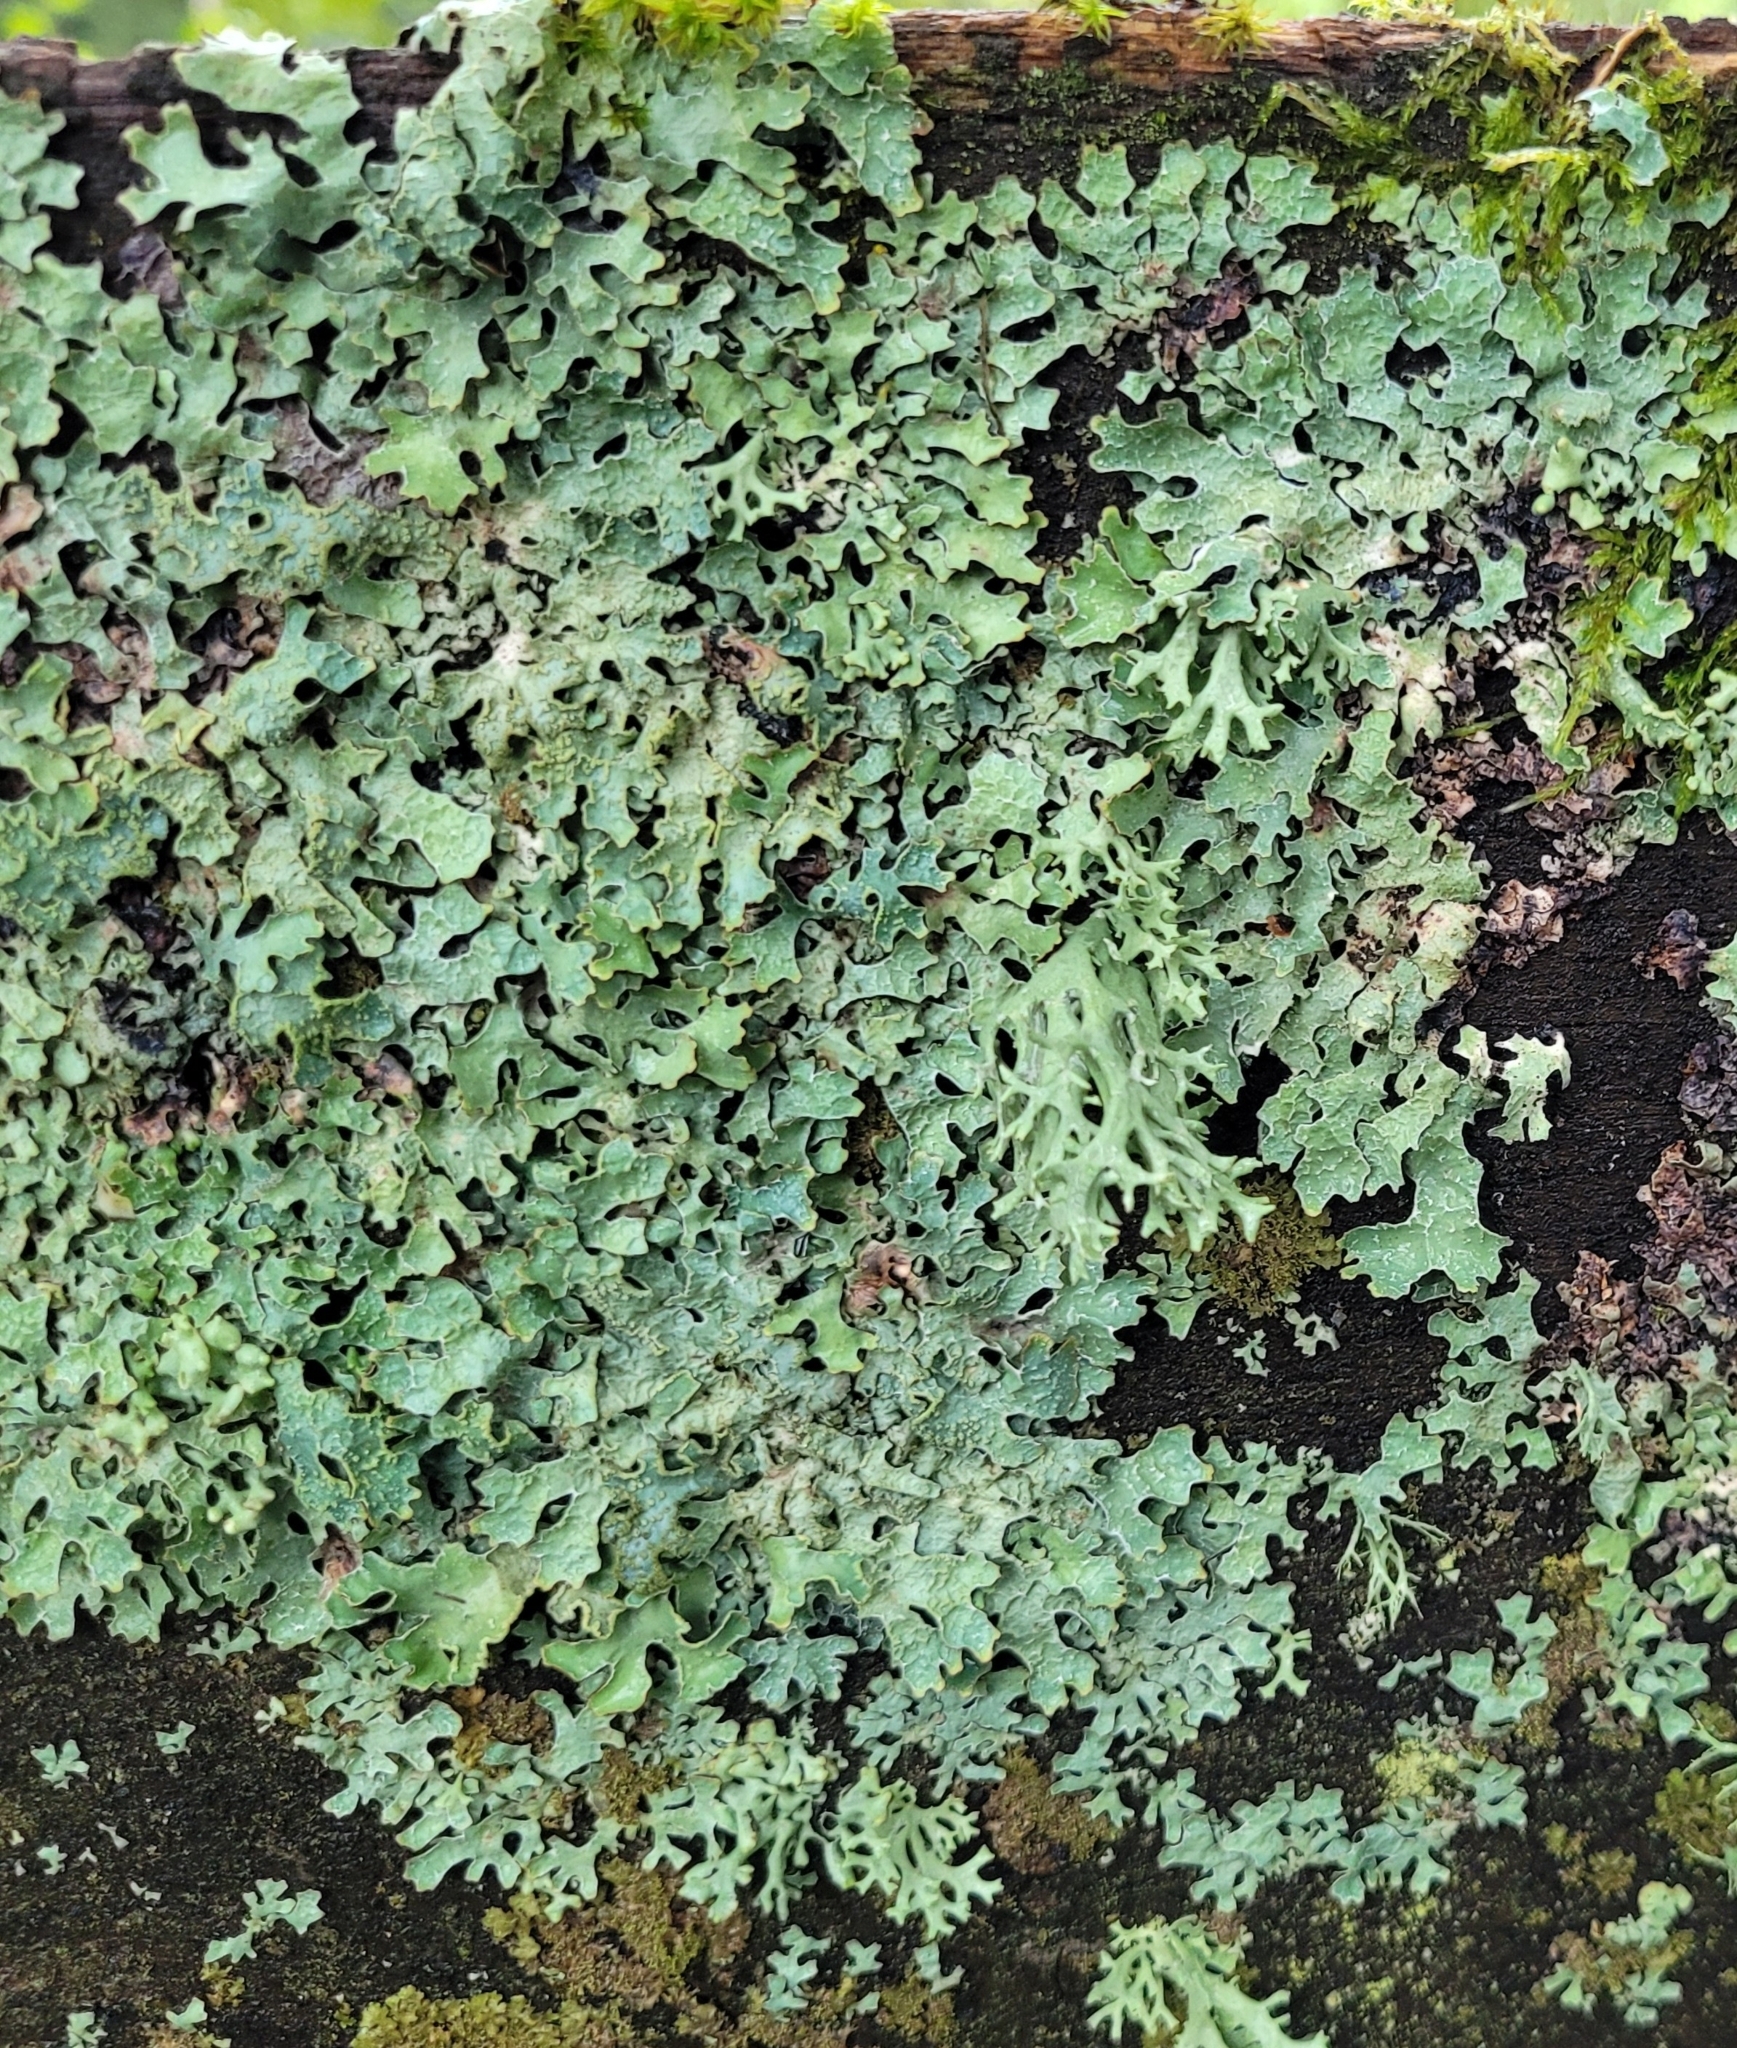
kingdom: Fungi
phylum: Ascomycota
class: Lecanoromycetes
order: Lecanorales
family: Parmeliaceae
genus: Parmelia
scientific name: Parmelia sulcata
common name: Netted shield lichen
